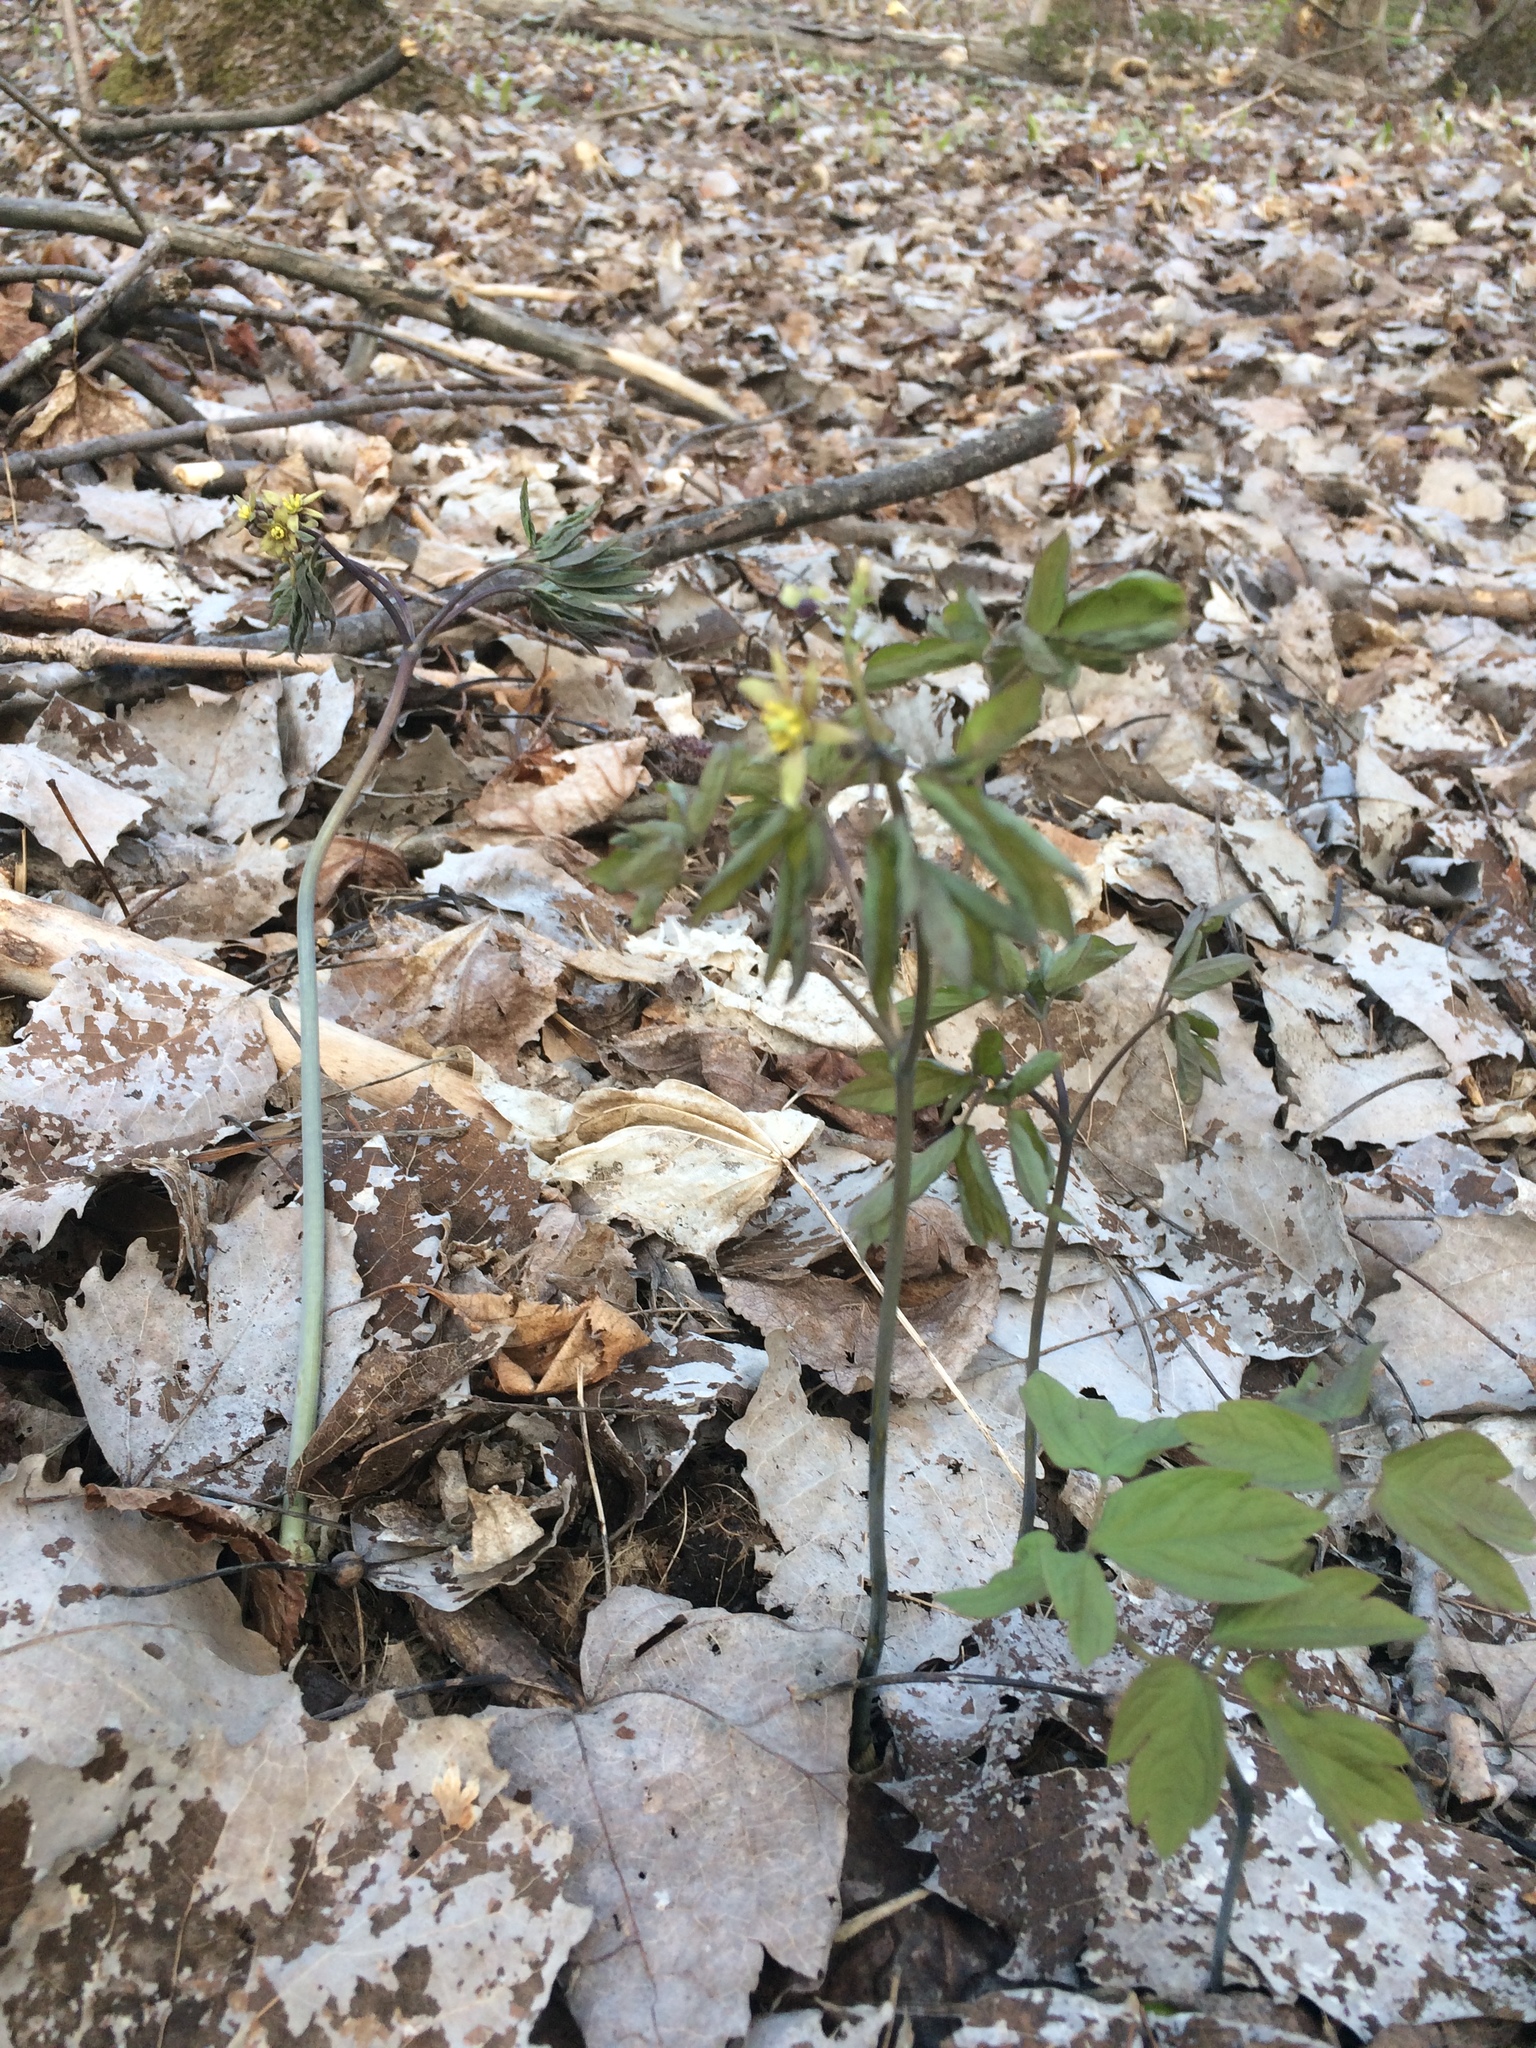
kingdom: Plantae
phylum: Tracheophyta
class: Magnoliopsida
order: Ranunculales
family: Berberidaceae
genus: Caulophyllum
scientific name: Caulophyllum giganteum
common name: Blue cohosh
